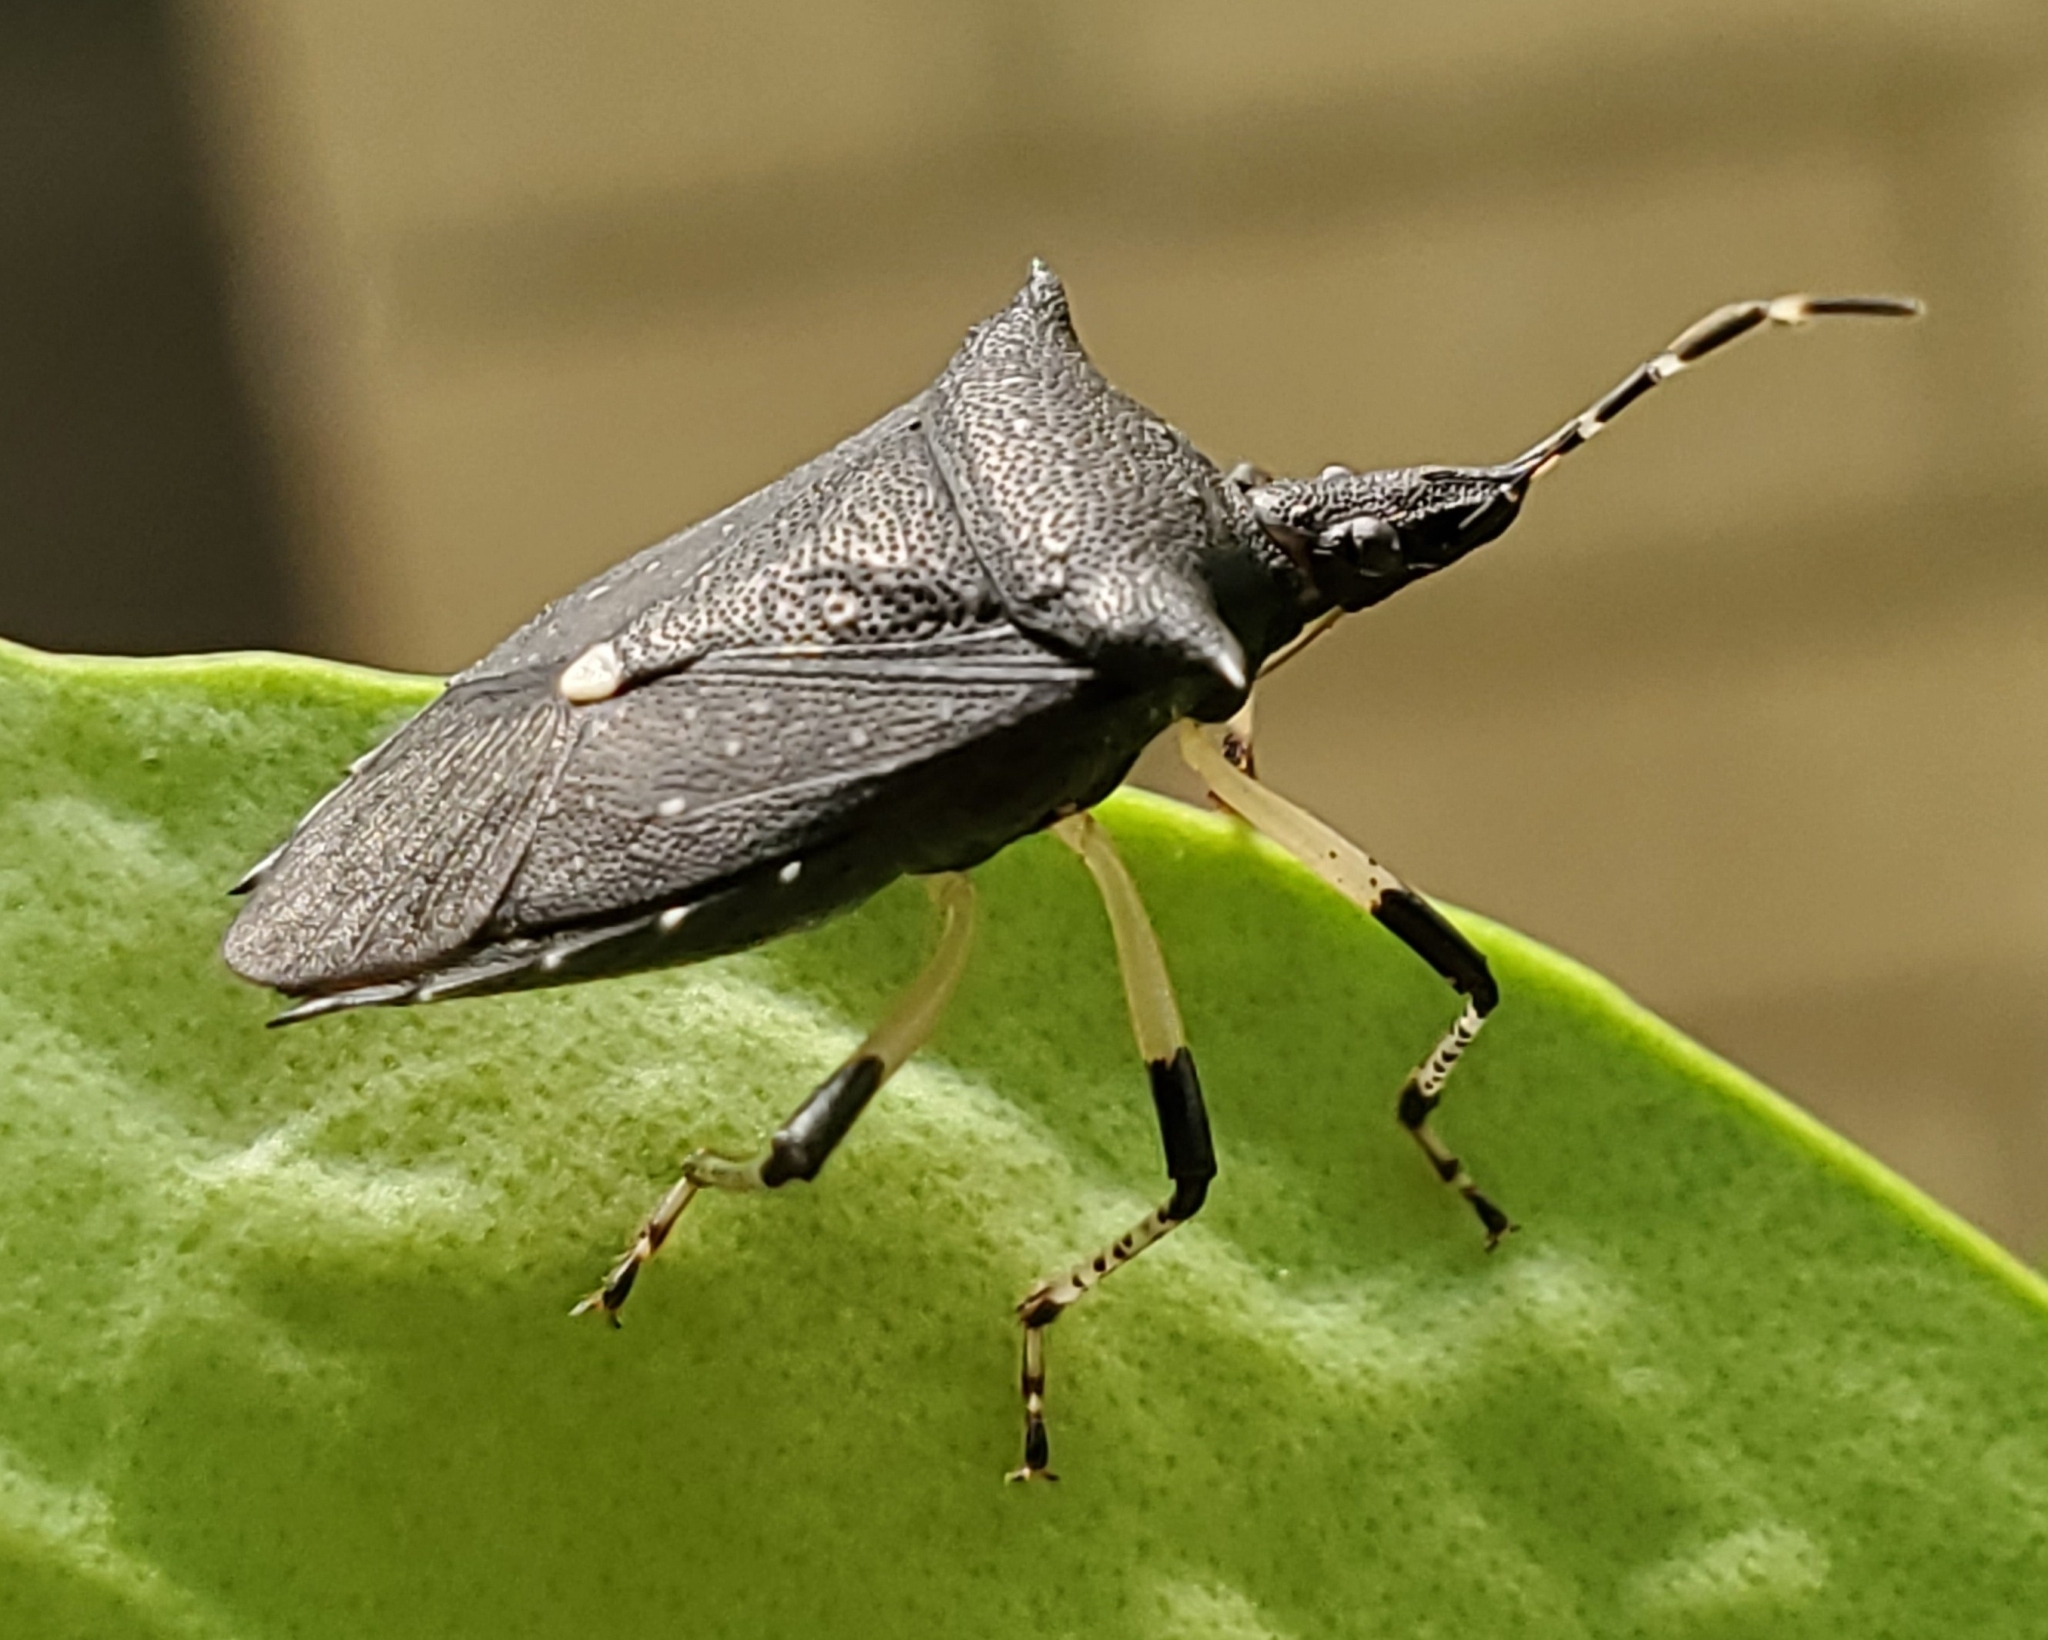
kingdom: Animalia
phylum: Arthropoda
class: Insecta
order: Hemiptera
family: Pentatomidae
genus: Proxys
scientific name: Proxys punctulatus
